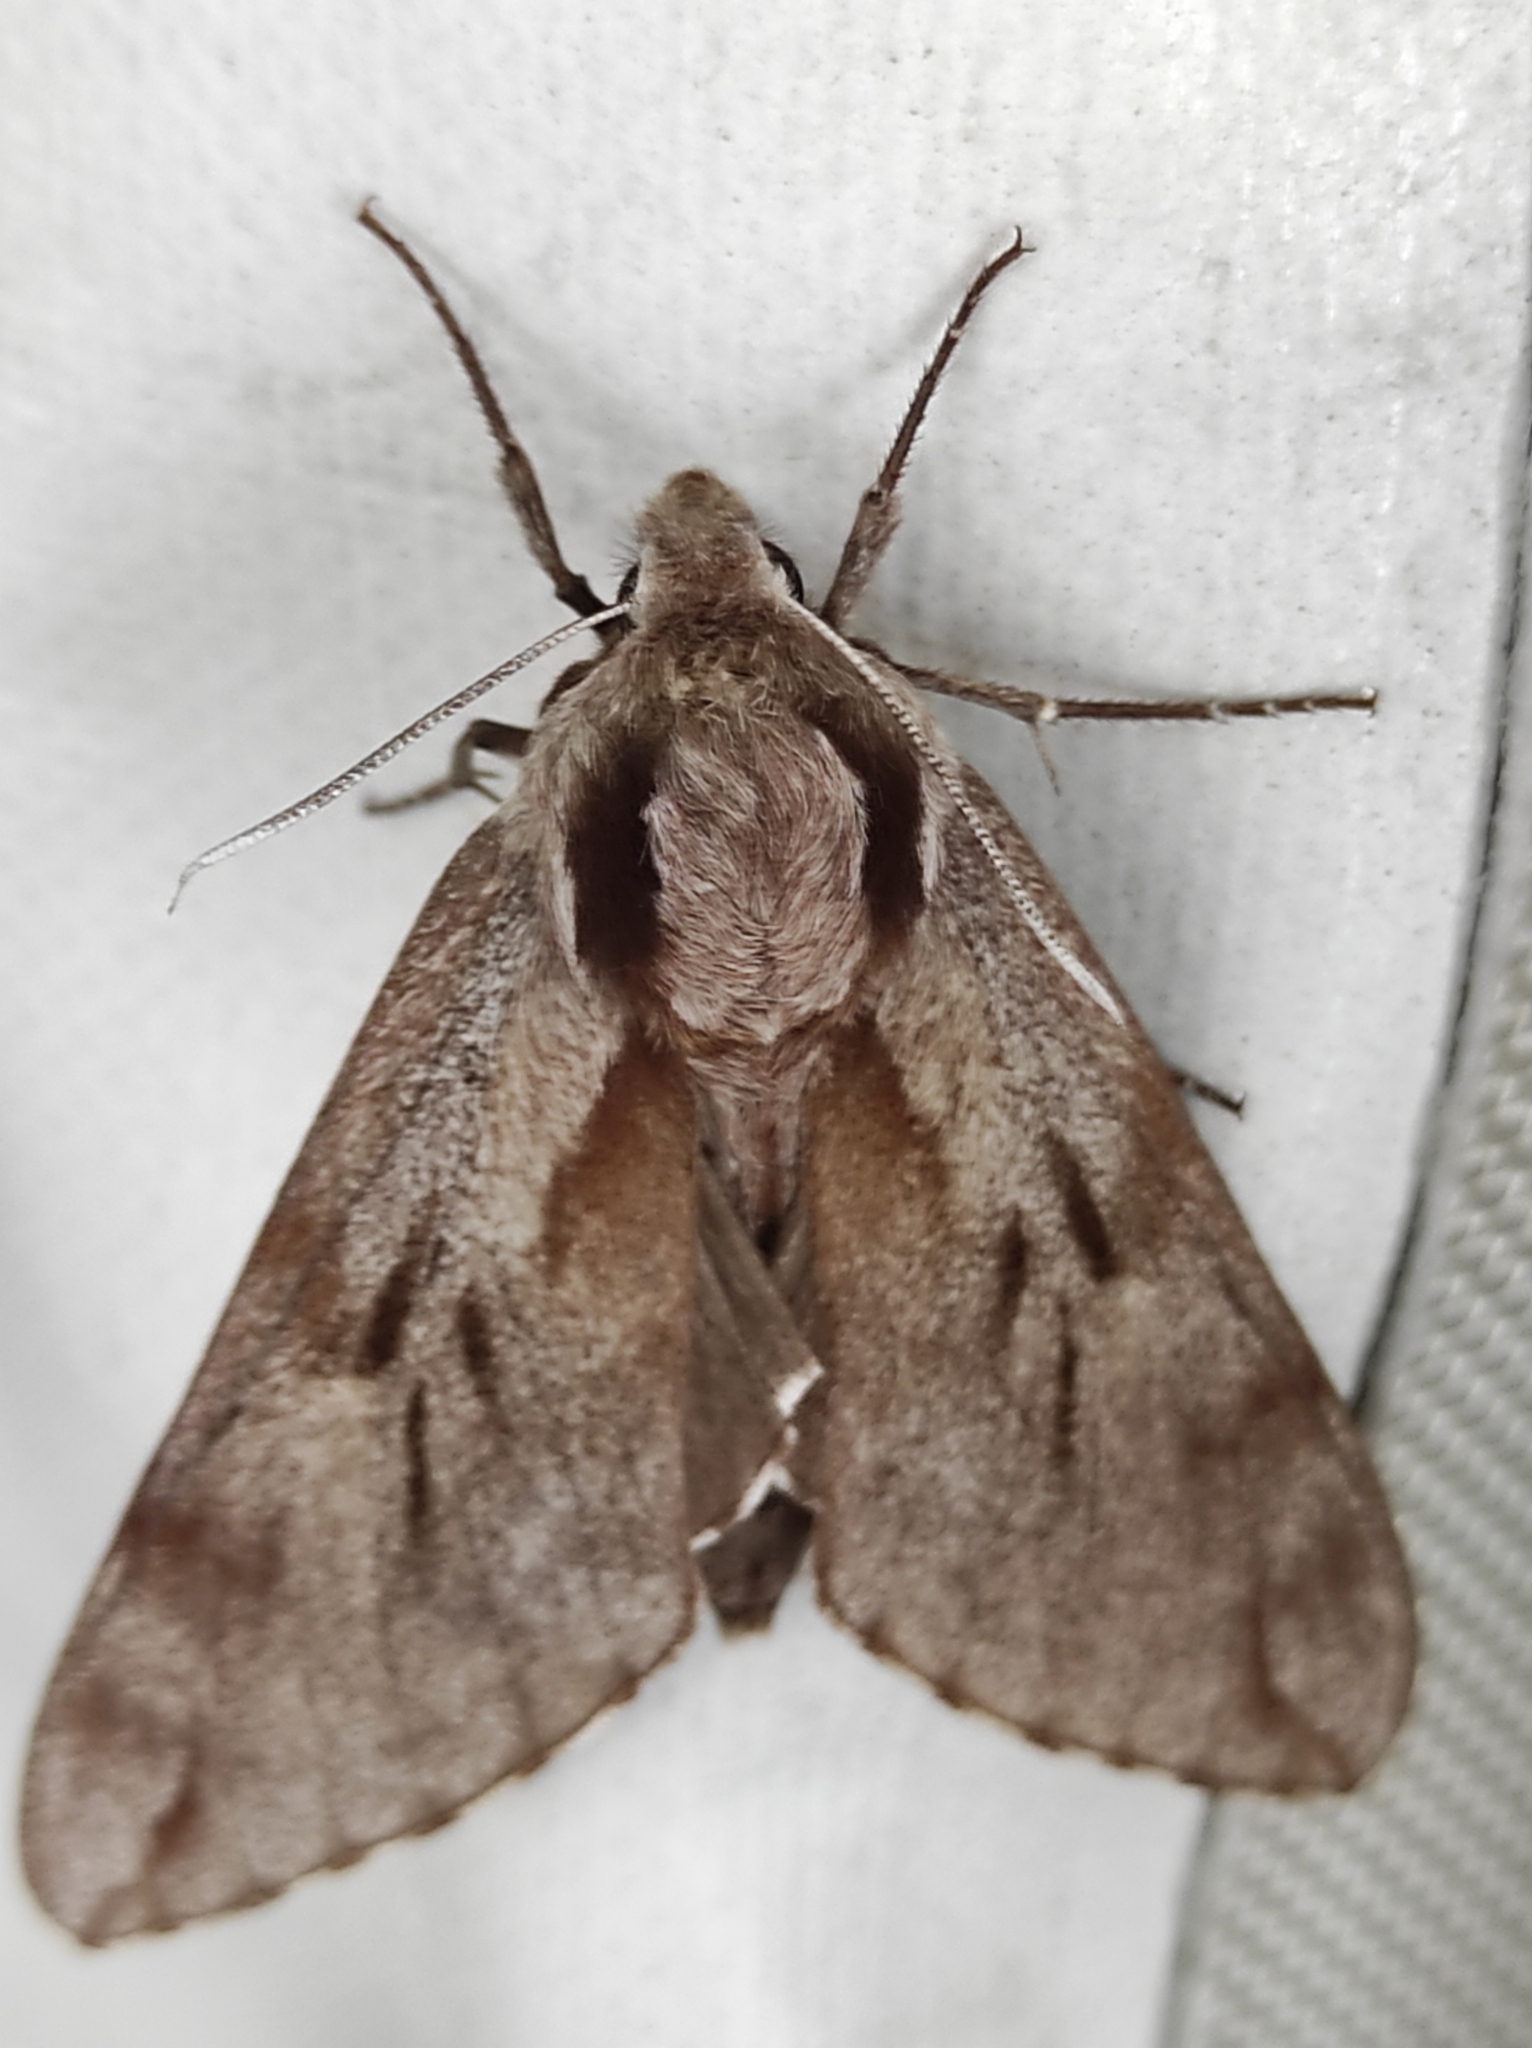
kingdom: Animalia
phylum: Arthropoda
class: Insecta
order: Lepidoptera
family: Sphingidae
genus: Sphinx
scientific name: Sphinx pinastri
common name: Pine hawk-moth
